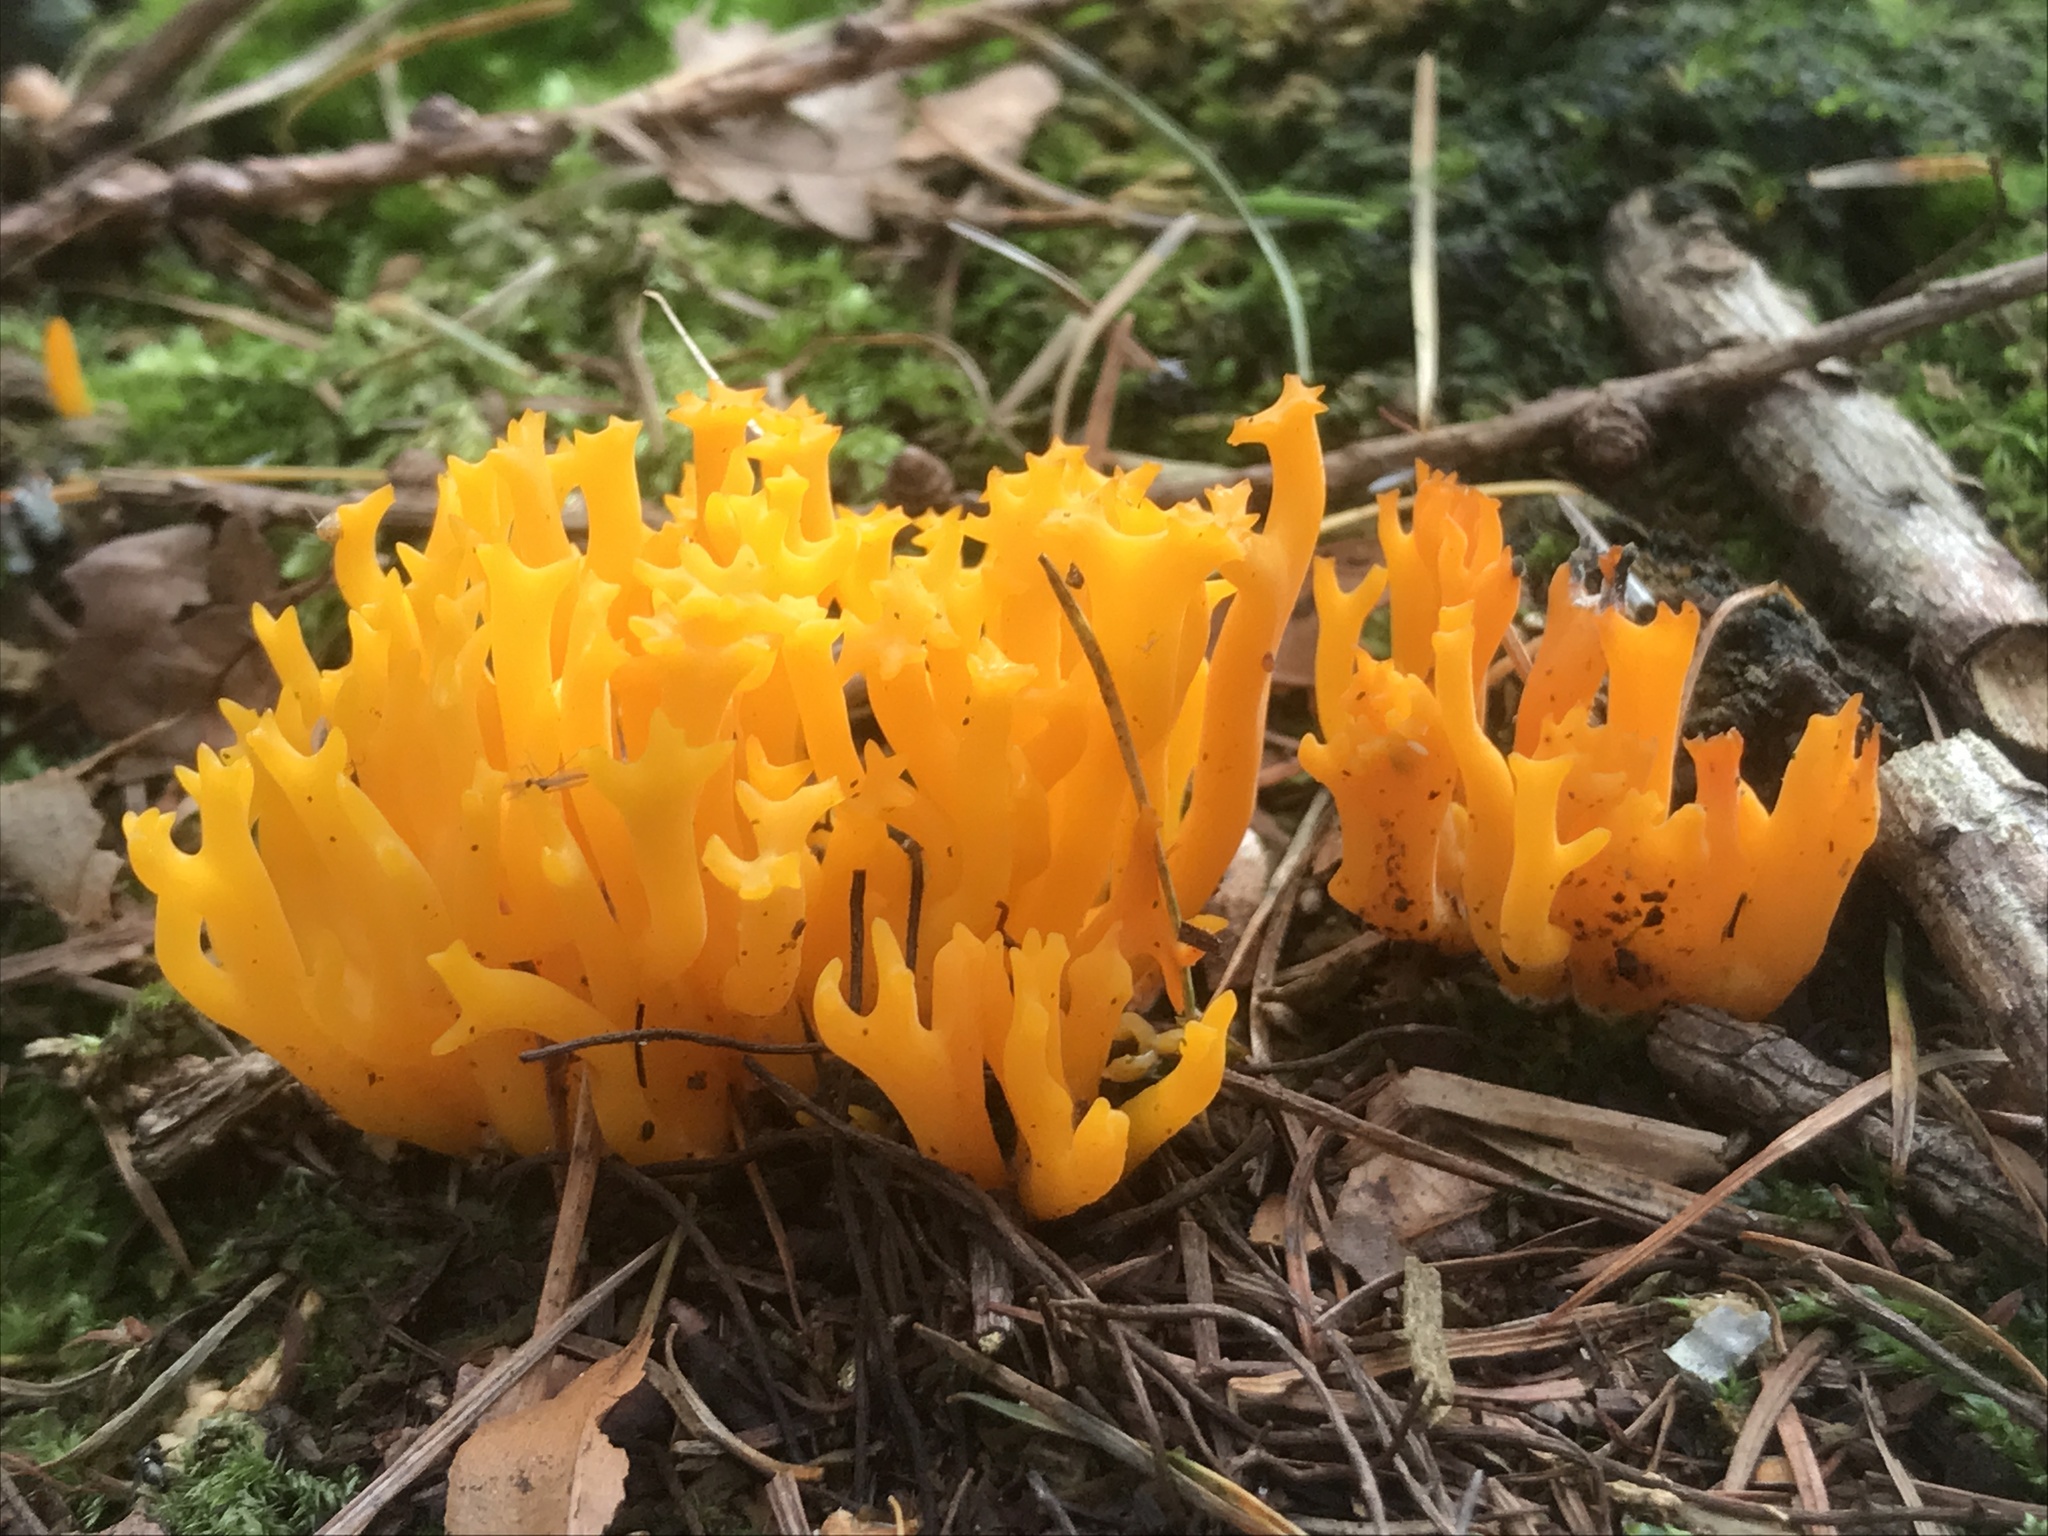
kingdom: Fungi
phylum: Basidiomycota
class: Dacrymycetes
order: Dacrymycetales
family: Dacrymycetaceae
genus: Calocera
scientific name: Calocera viscosa
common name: Yellow stagshorn
